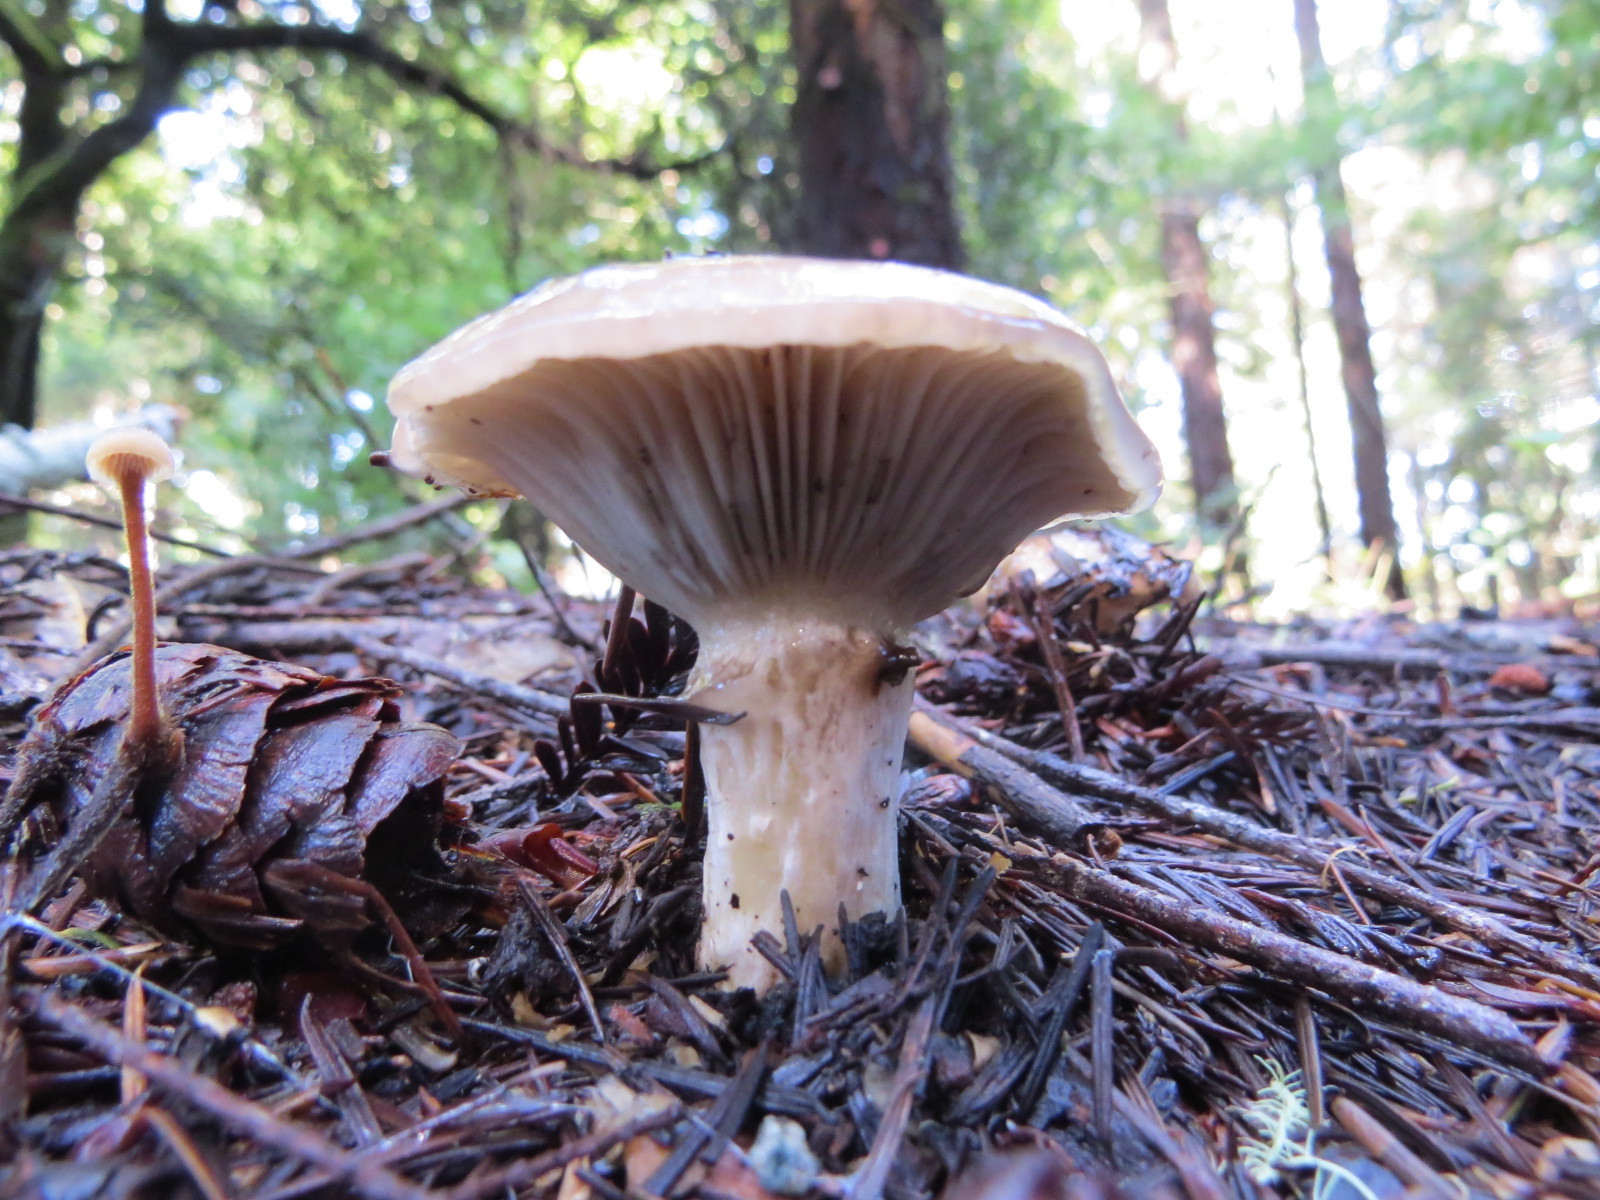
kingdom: Fungi
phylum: Basidiomycota
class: Agaricomycetes
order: Boletales
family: Gomphidiaceae
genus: Gomphidius
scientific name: Gomphidius oregonensis
